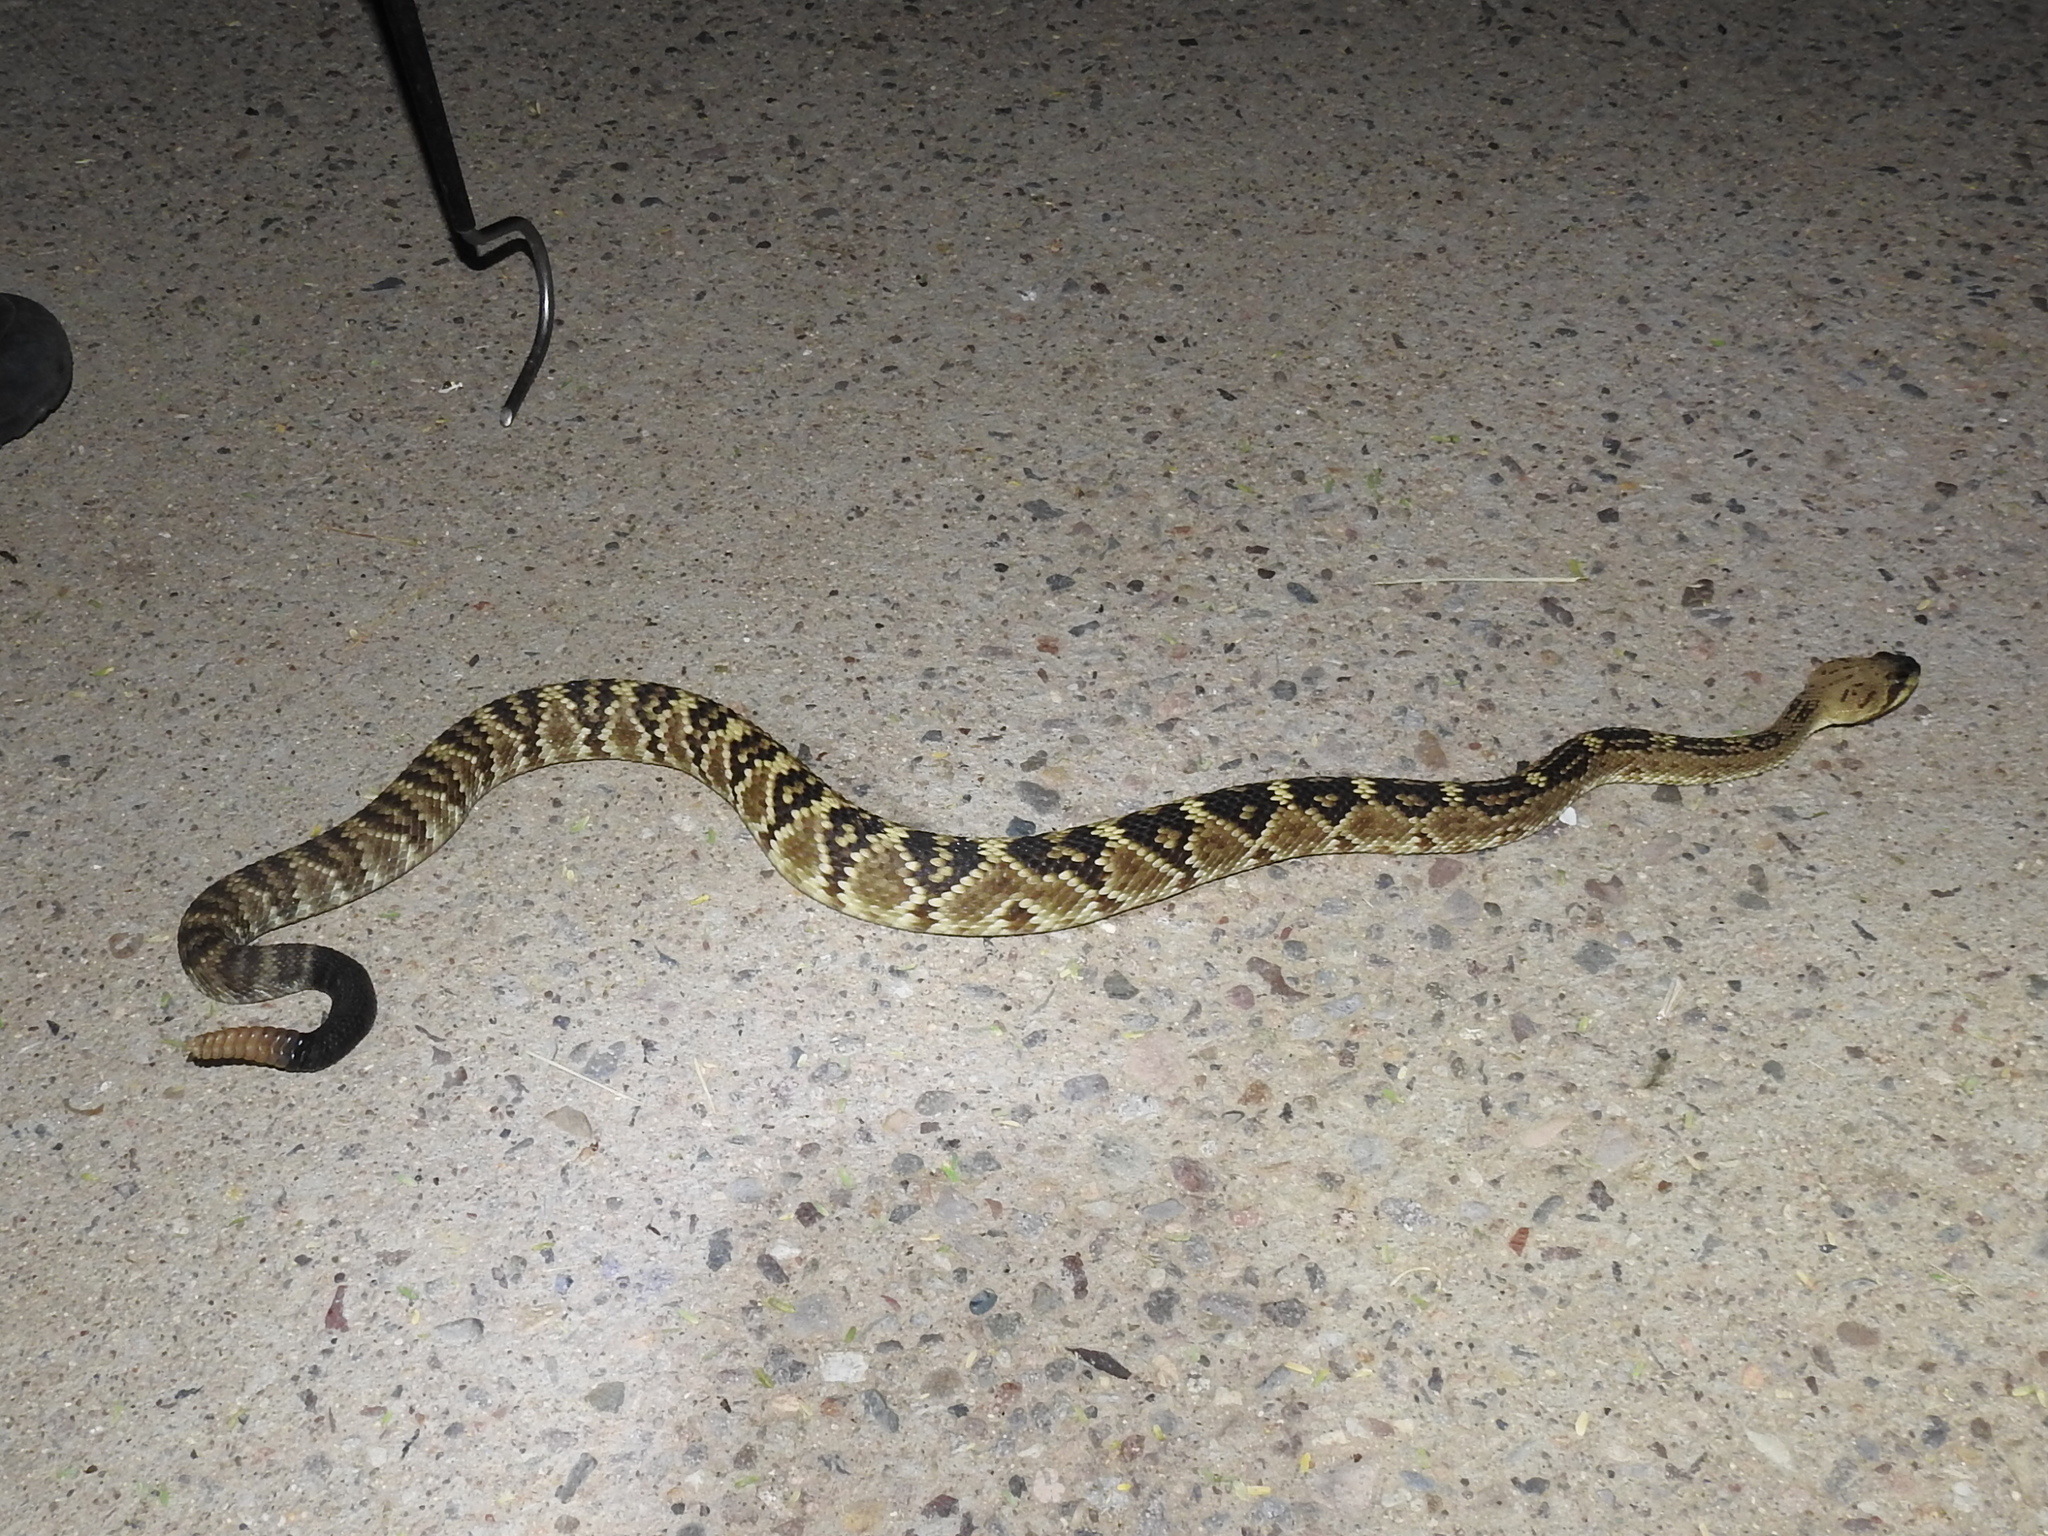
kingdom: Animalia
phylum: Chordata
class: Squamata
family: Viperidae
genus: Crotalus
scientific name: Crotalus molossus
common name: Black tailed rattlesnake
